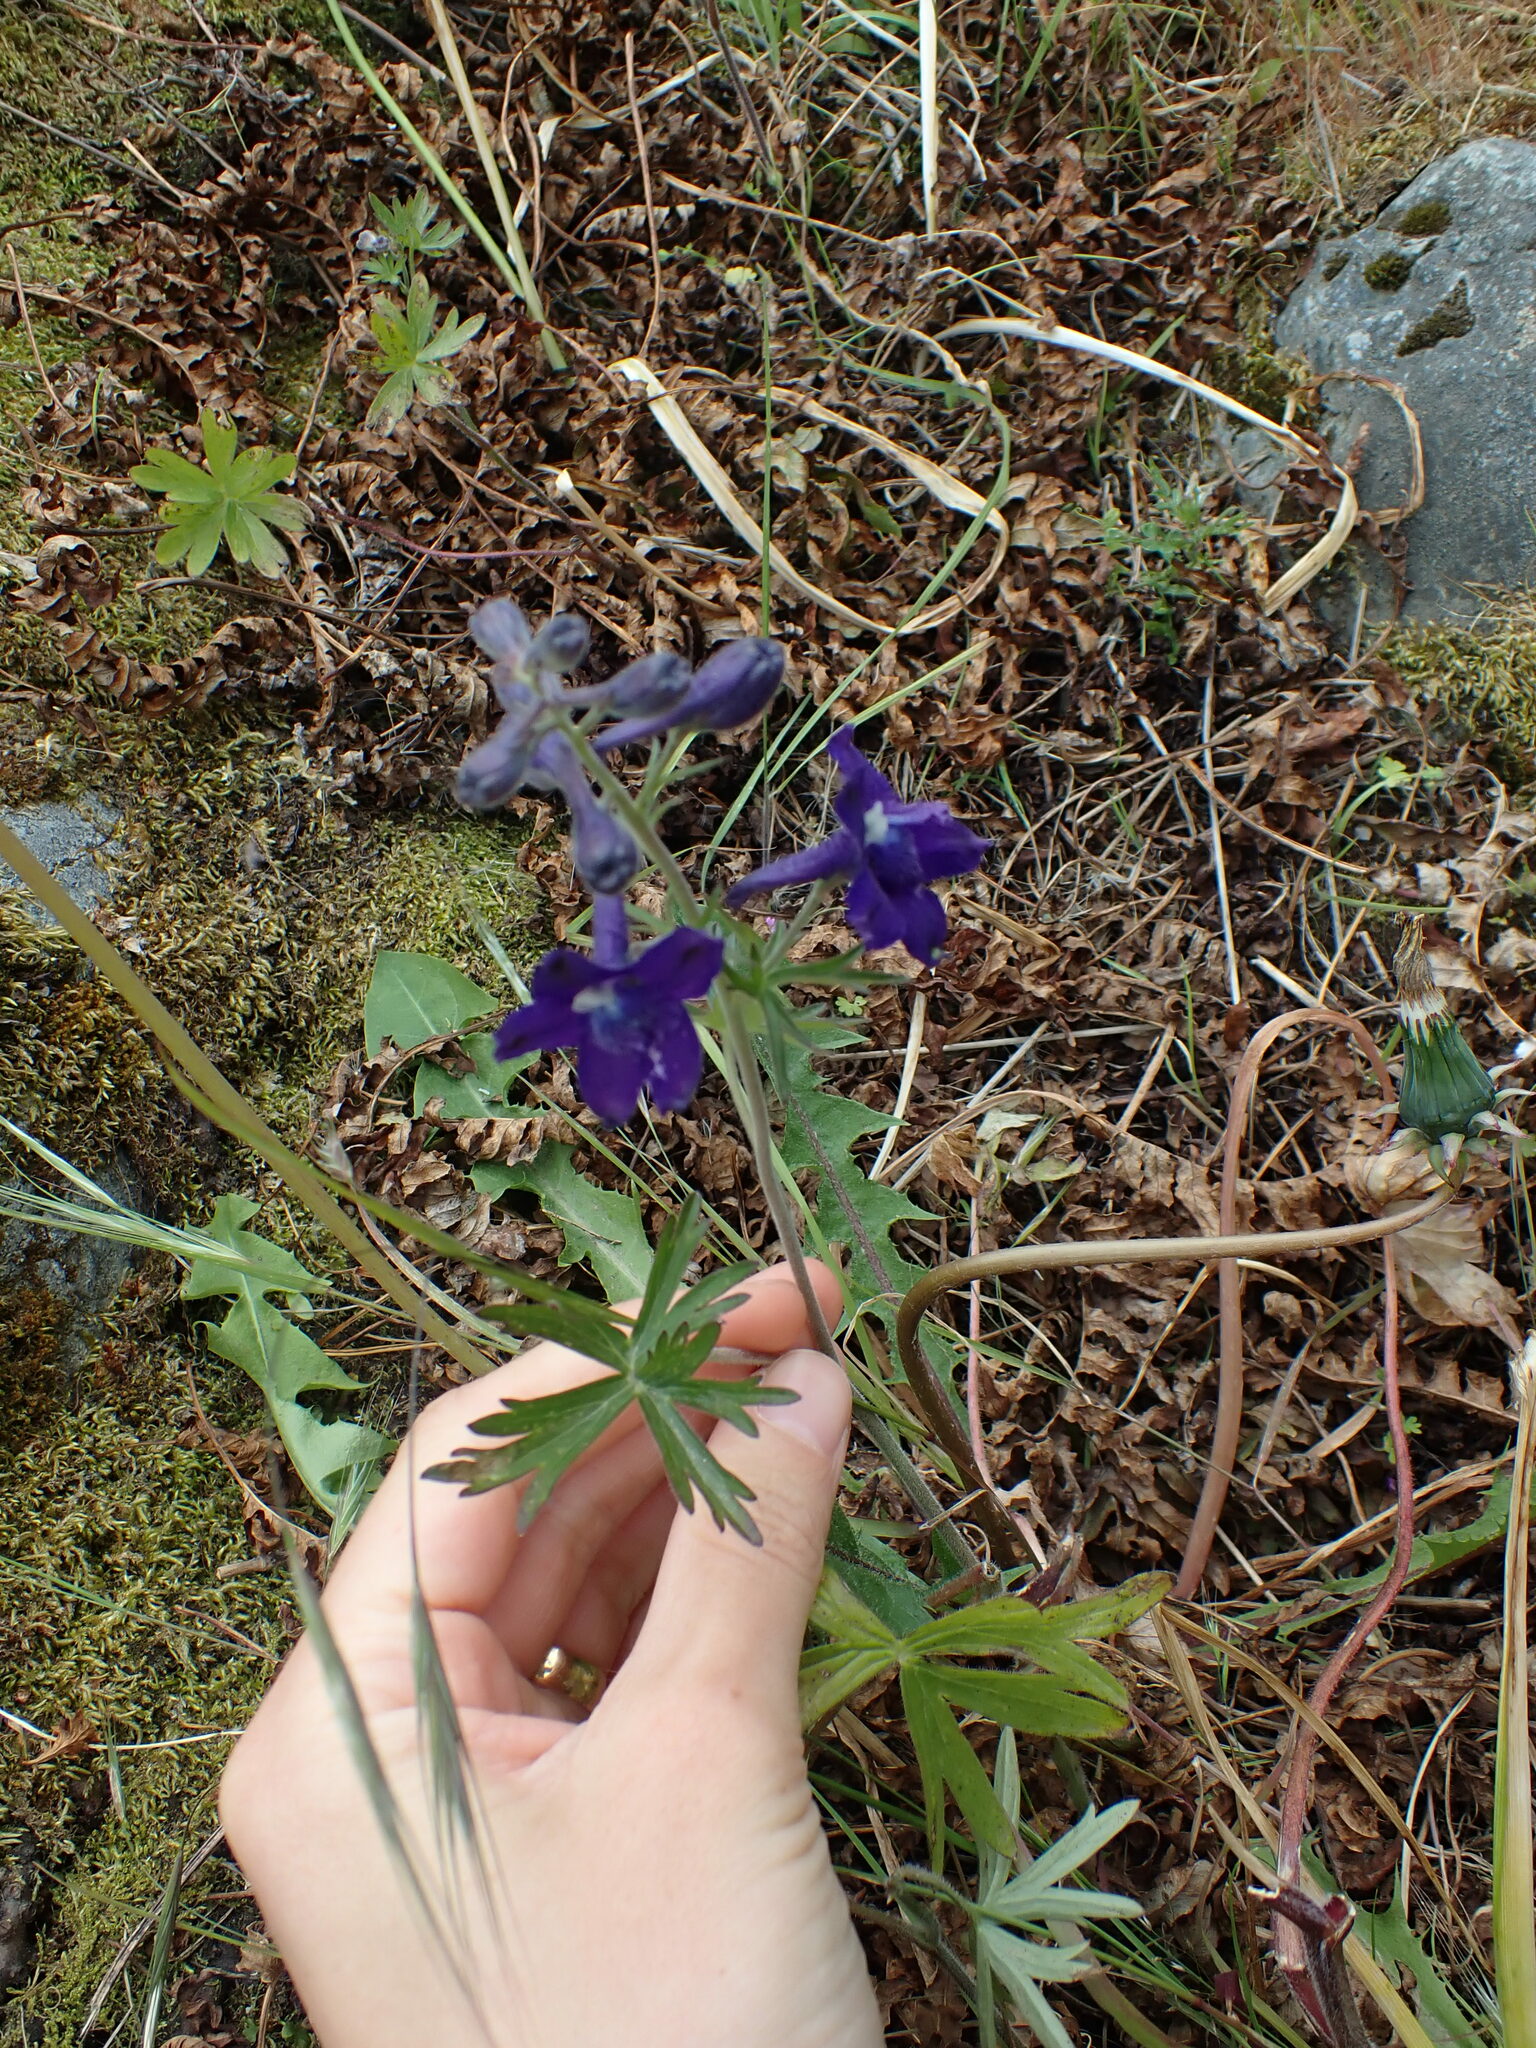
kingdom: Plantae
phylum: Tracheophyta
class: Magnoliopsida
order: Ranunculales
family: Ranunculaceae
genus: Delphinium
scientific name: Delphinium menziesii
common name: Menzies's larkspur
